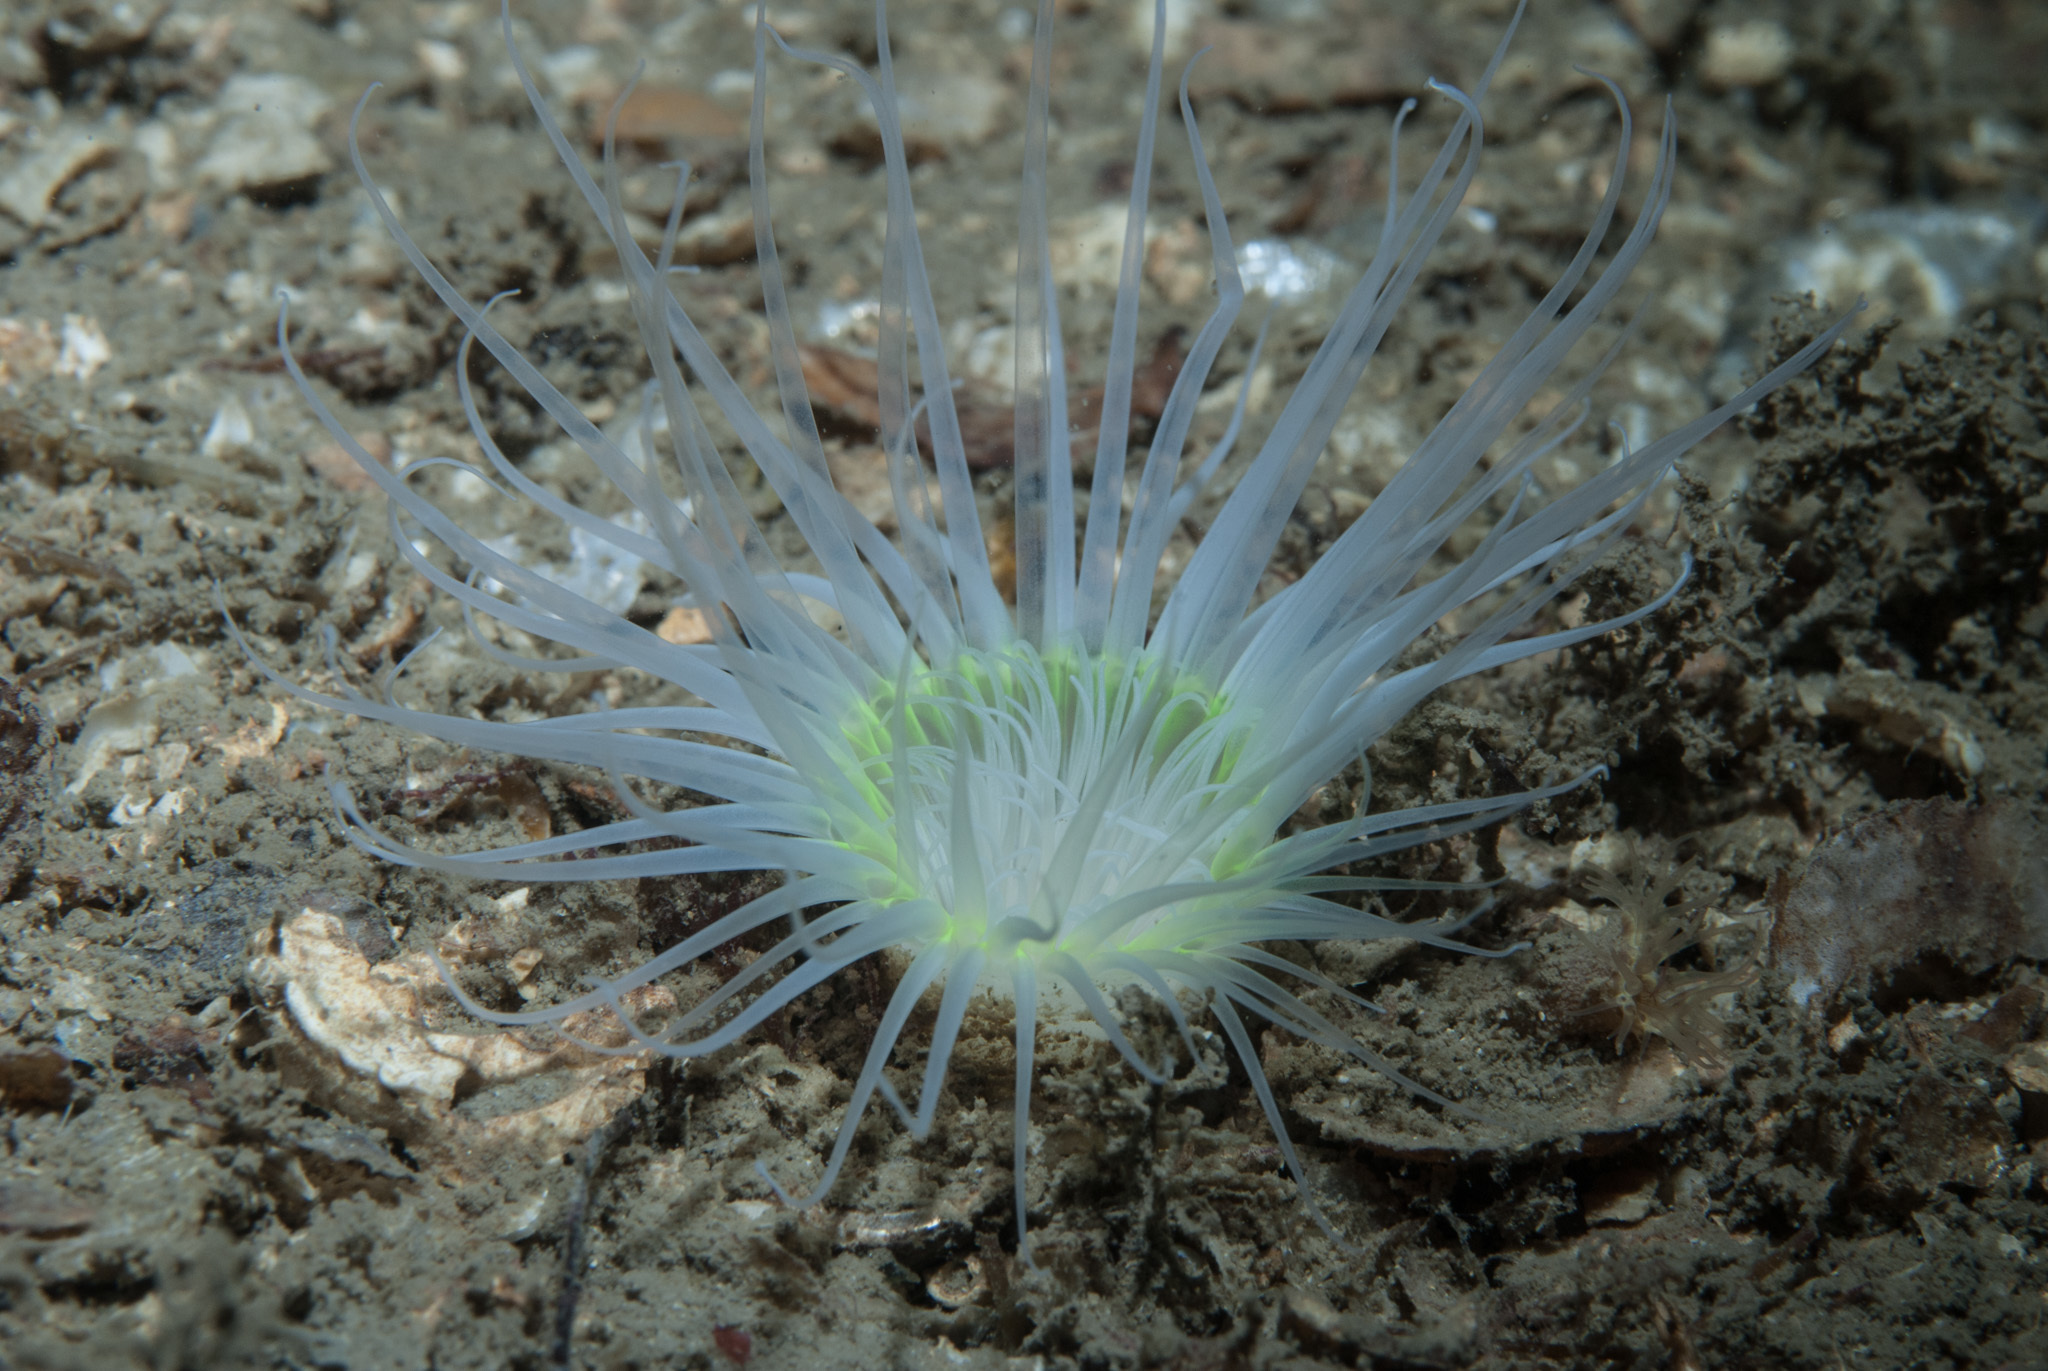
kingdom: Animalia
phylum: Cnidaria
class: Anthozoa
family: Cerianthidae
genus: Synarachnactis
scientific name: Synarachnactis
